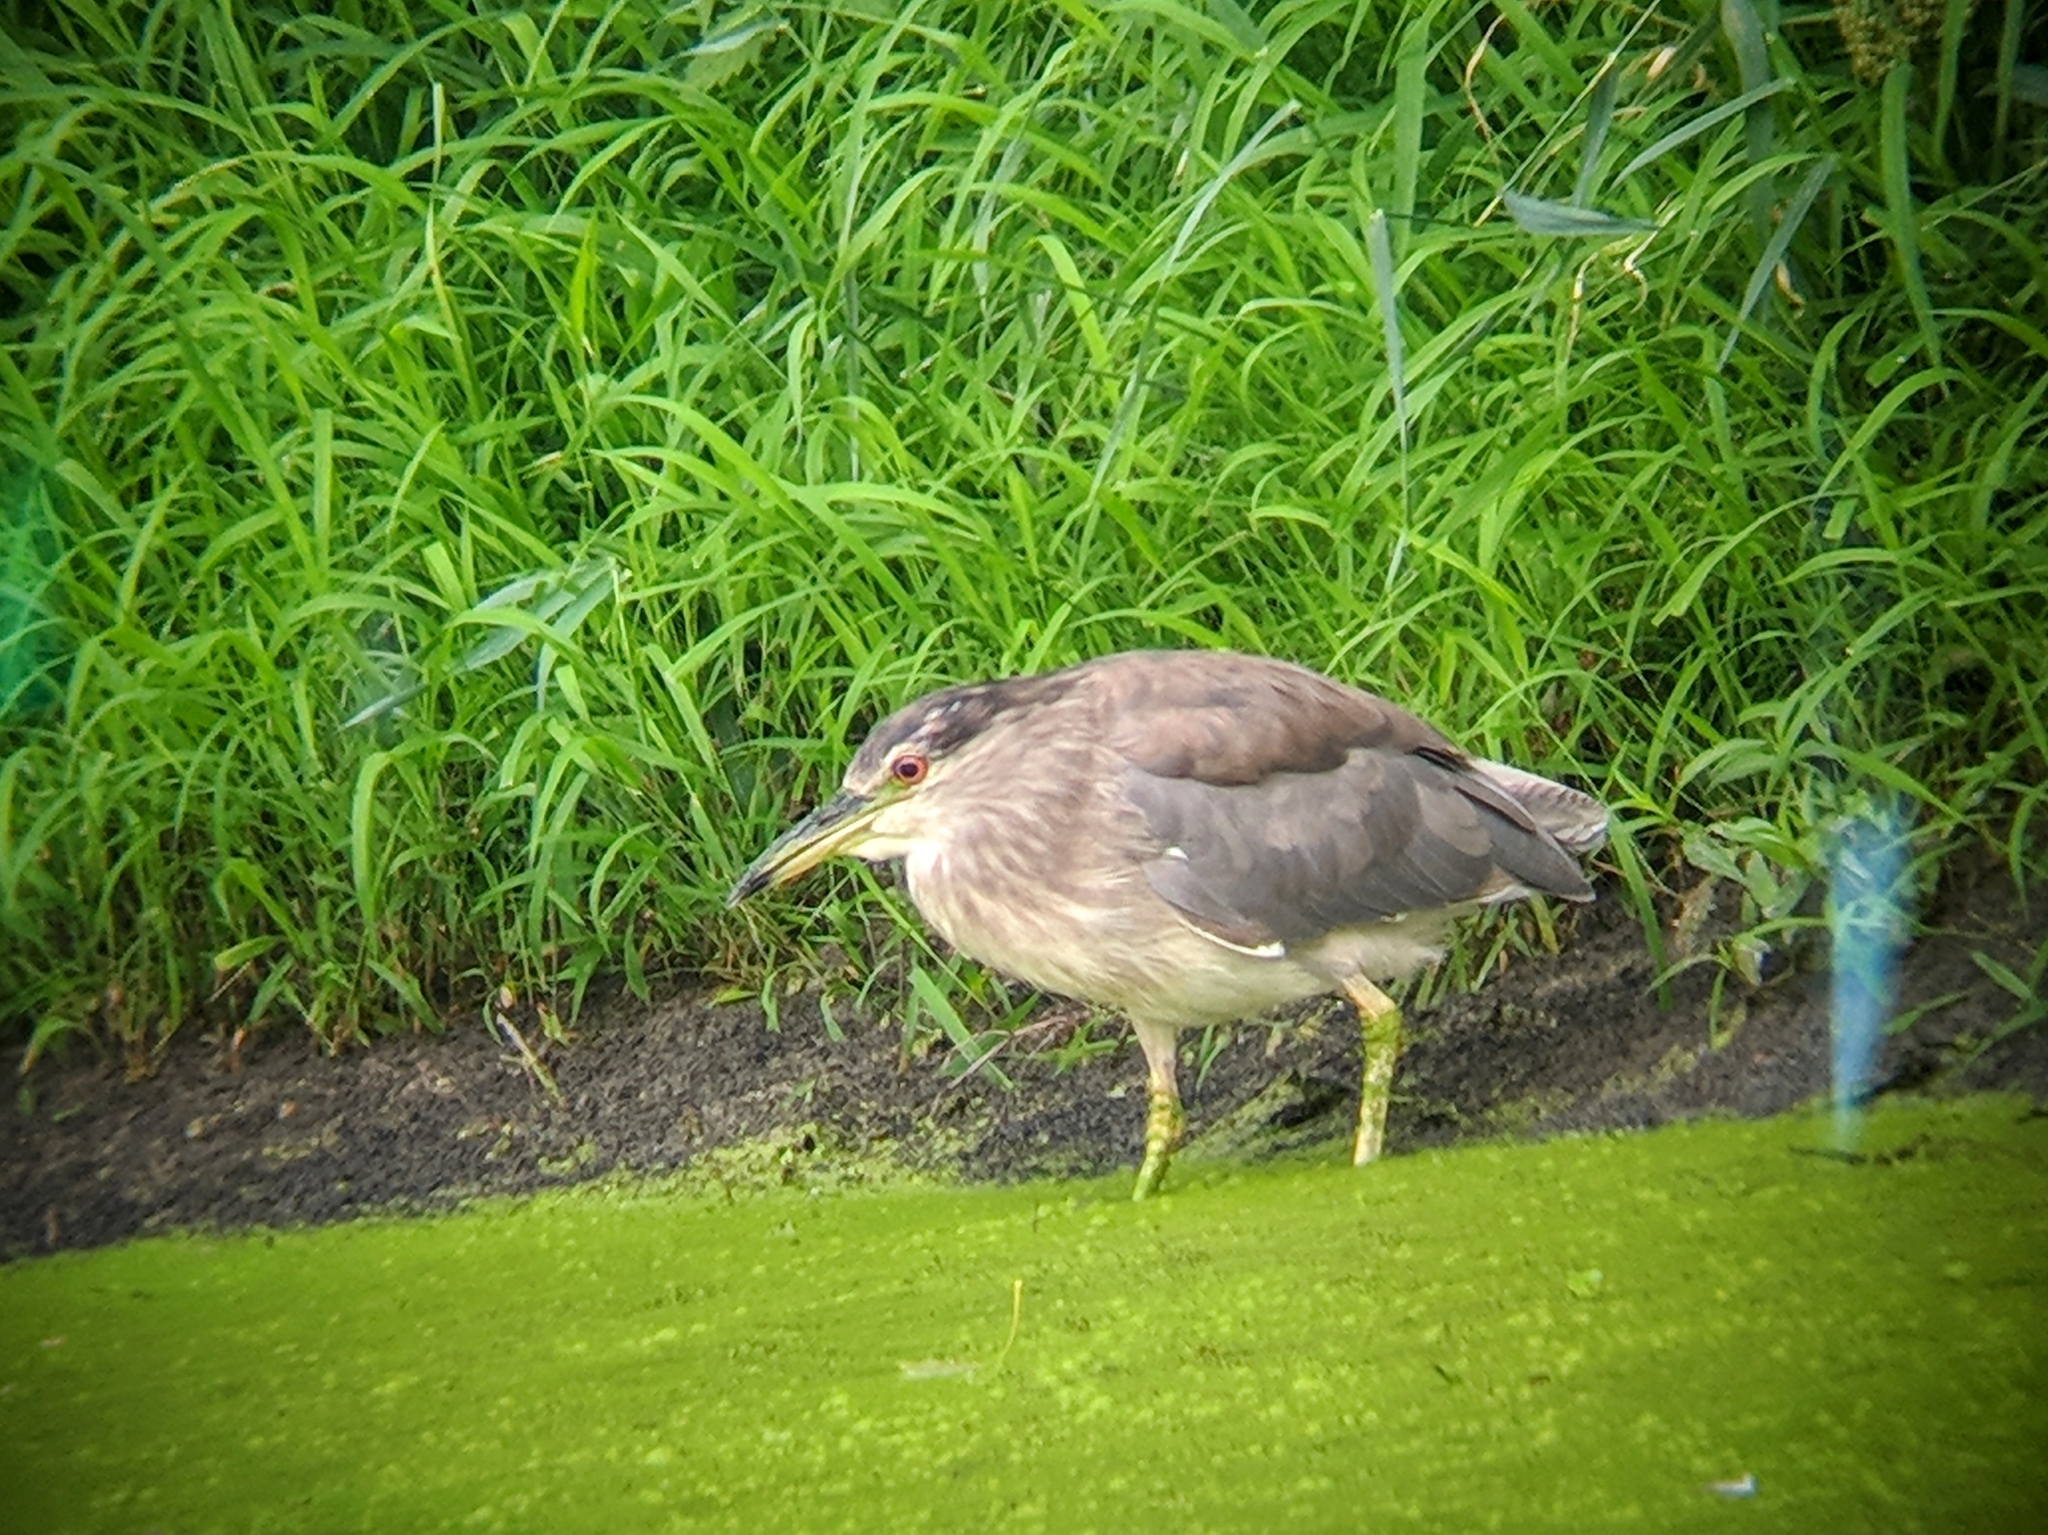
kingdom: Animalia
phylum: Chordata
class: Aves
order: Pelecaniformes
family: Ardeidae
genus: Nycticorax
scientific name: Nycticorax nycticorax
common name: Black-crowned night heron
